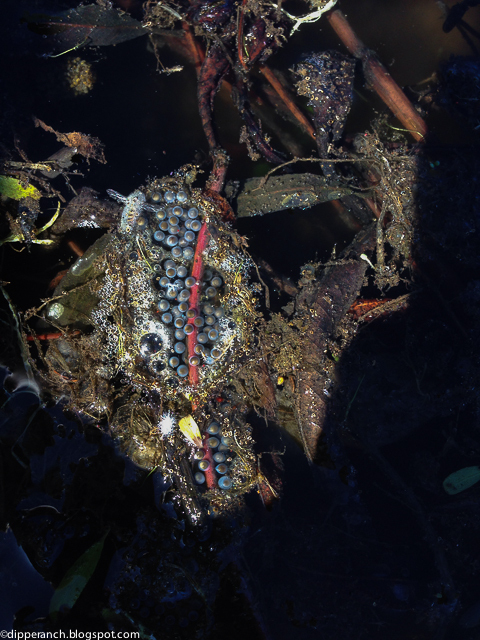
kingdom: Animalia
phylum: Chordata
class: Amphibia
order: Anura
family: Hylidae
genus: Pseudacris
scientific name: Pseudacris regilla
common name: Pacific chorus frog
